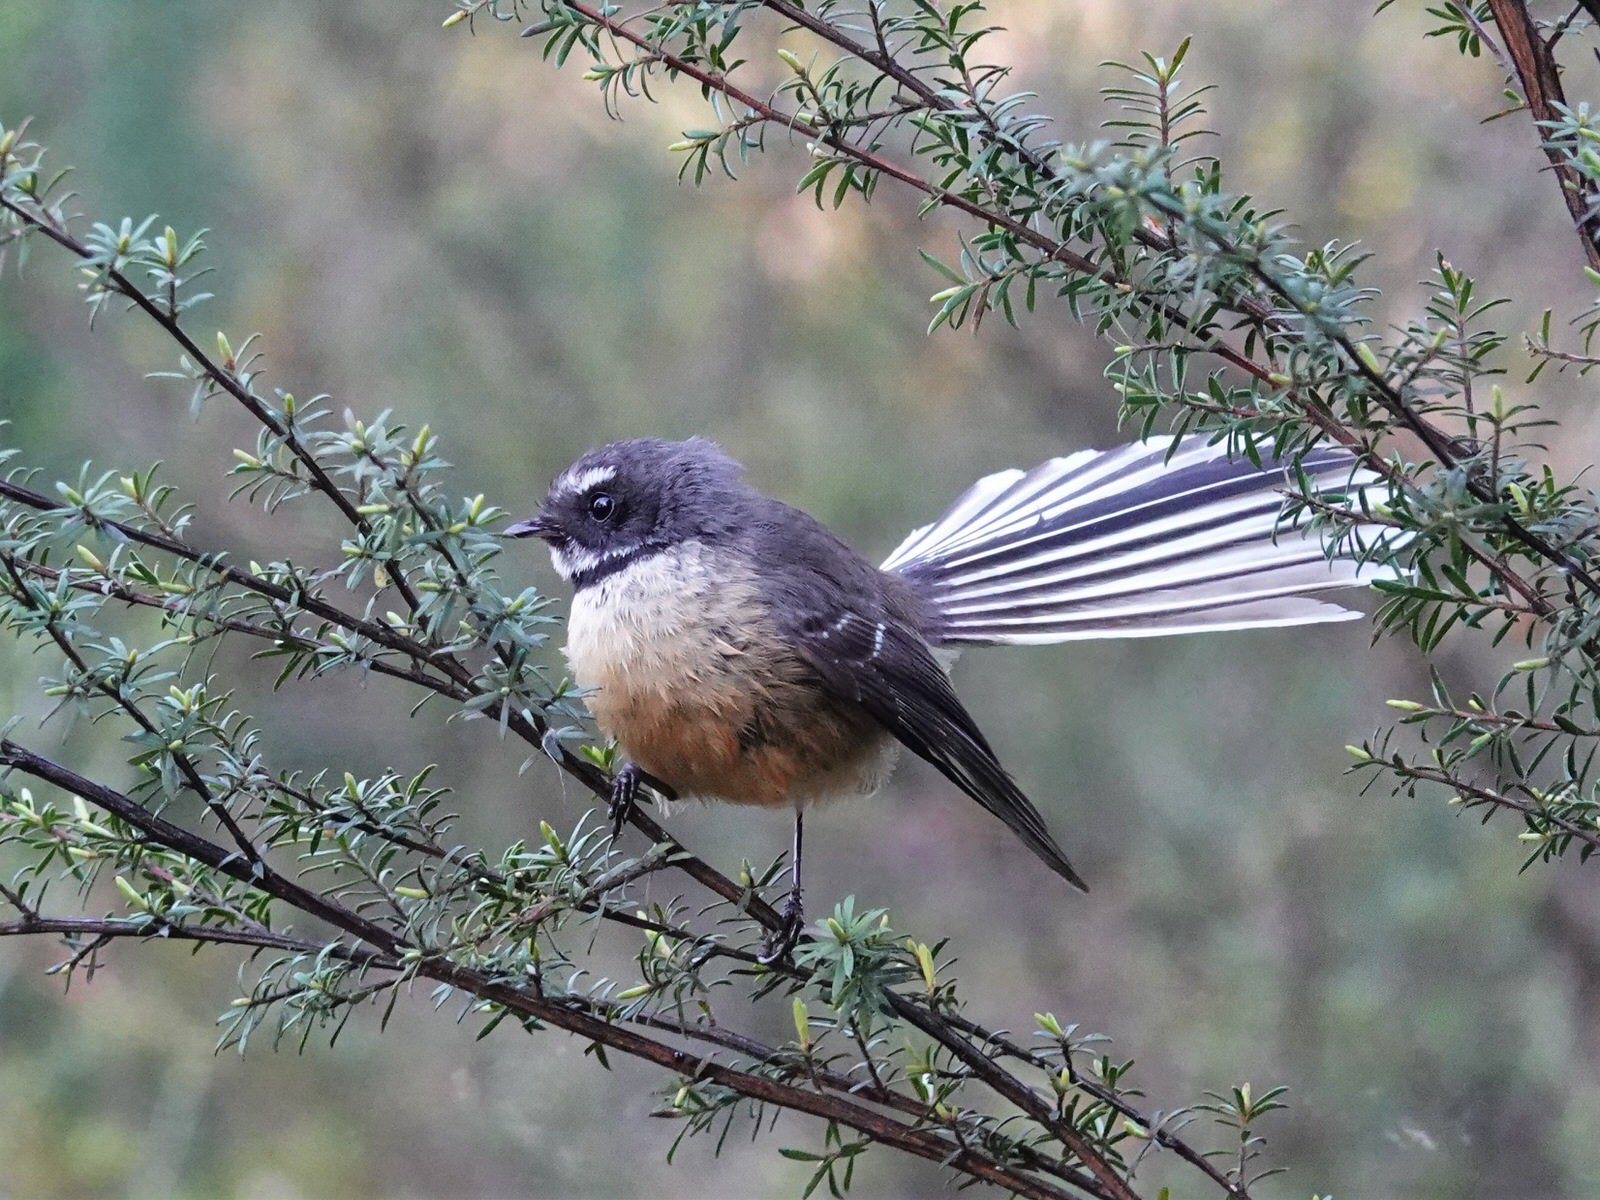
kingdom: Animalia
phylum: Chordata
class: Aves
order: Passeriformes
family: Rhipiduridae
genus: Rhipidura
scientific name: Rhipidura fuliginosa
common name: New zealand fantail
